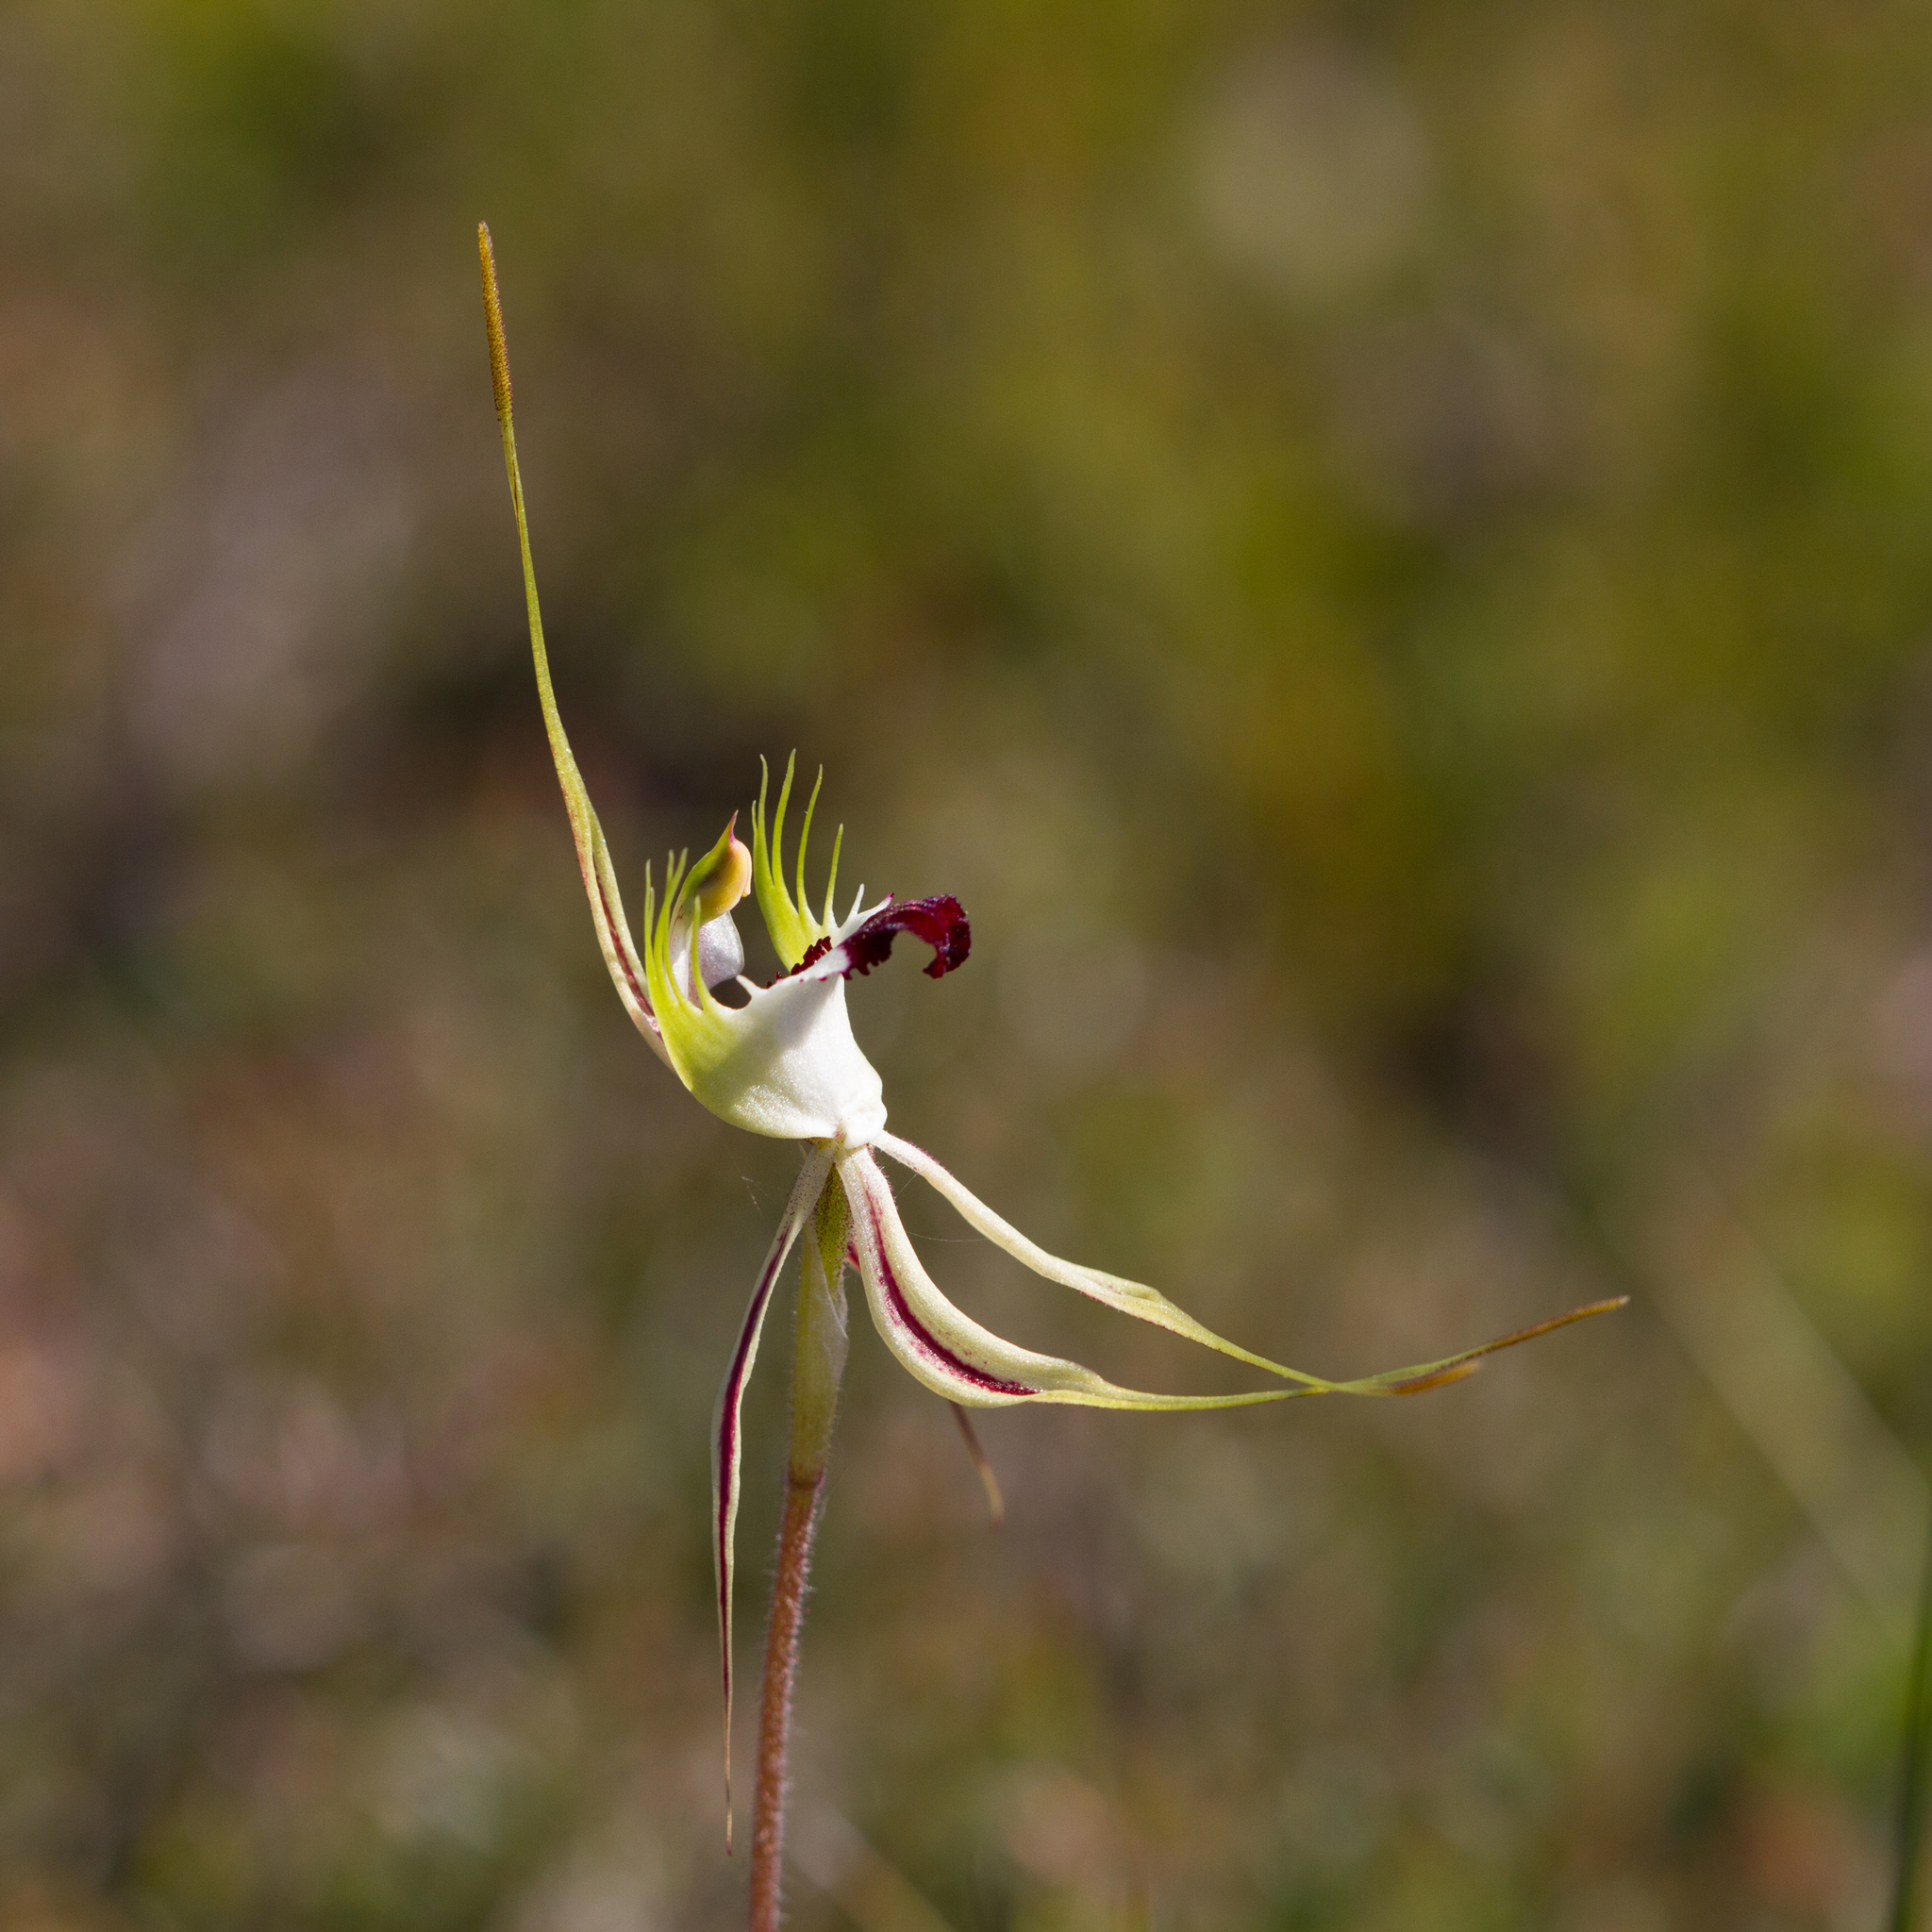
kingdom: Plantae
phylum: Tracheophyta
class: Liliopsida
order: Asparagales
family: Orchidaceae
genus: Caladenia
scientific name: Caladenia tentaculata
